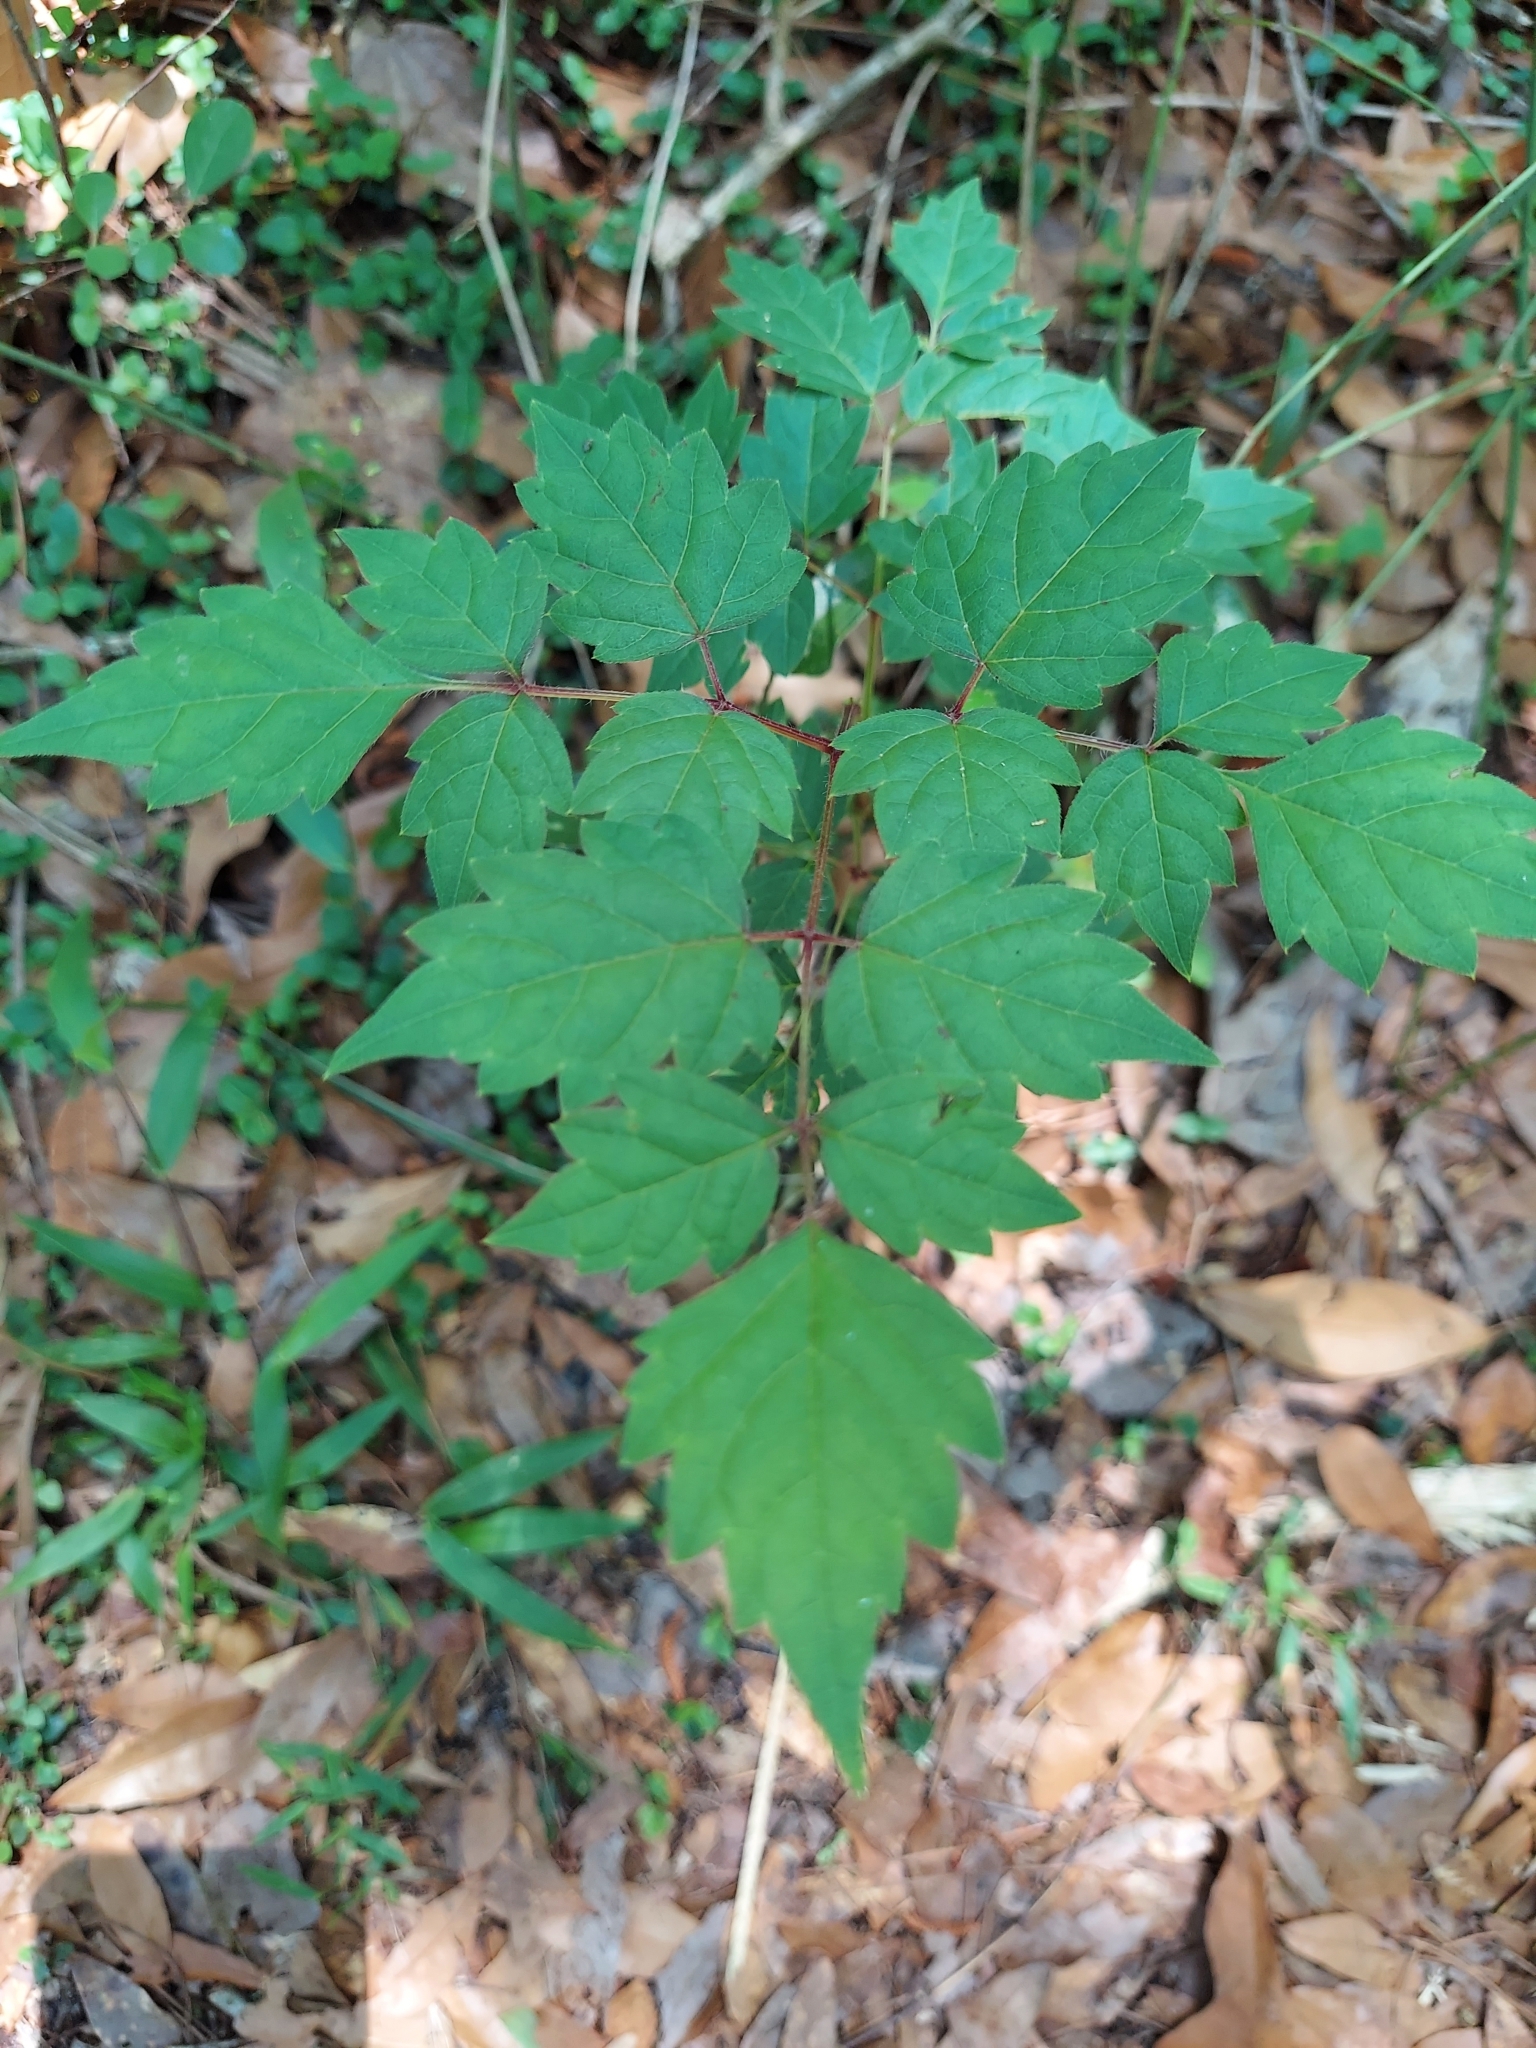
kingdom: Plantae
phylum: Tracheophyta
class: Magnoliopsida
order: Vitales
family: Vitaceae
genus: Nekemias
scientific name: Nekemias arborea
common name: Peppervine
